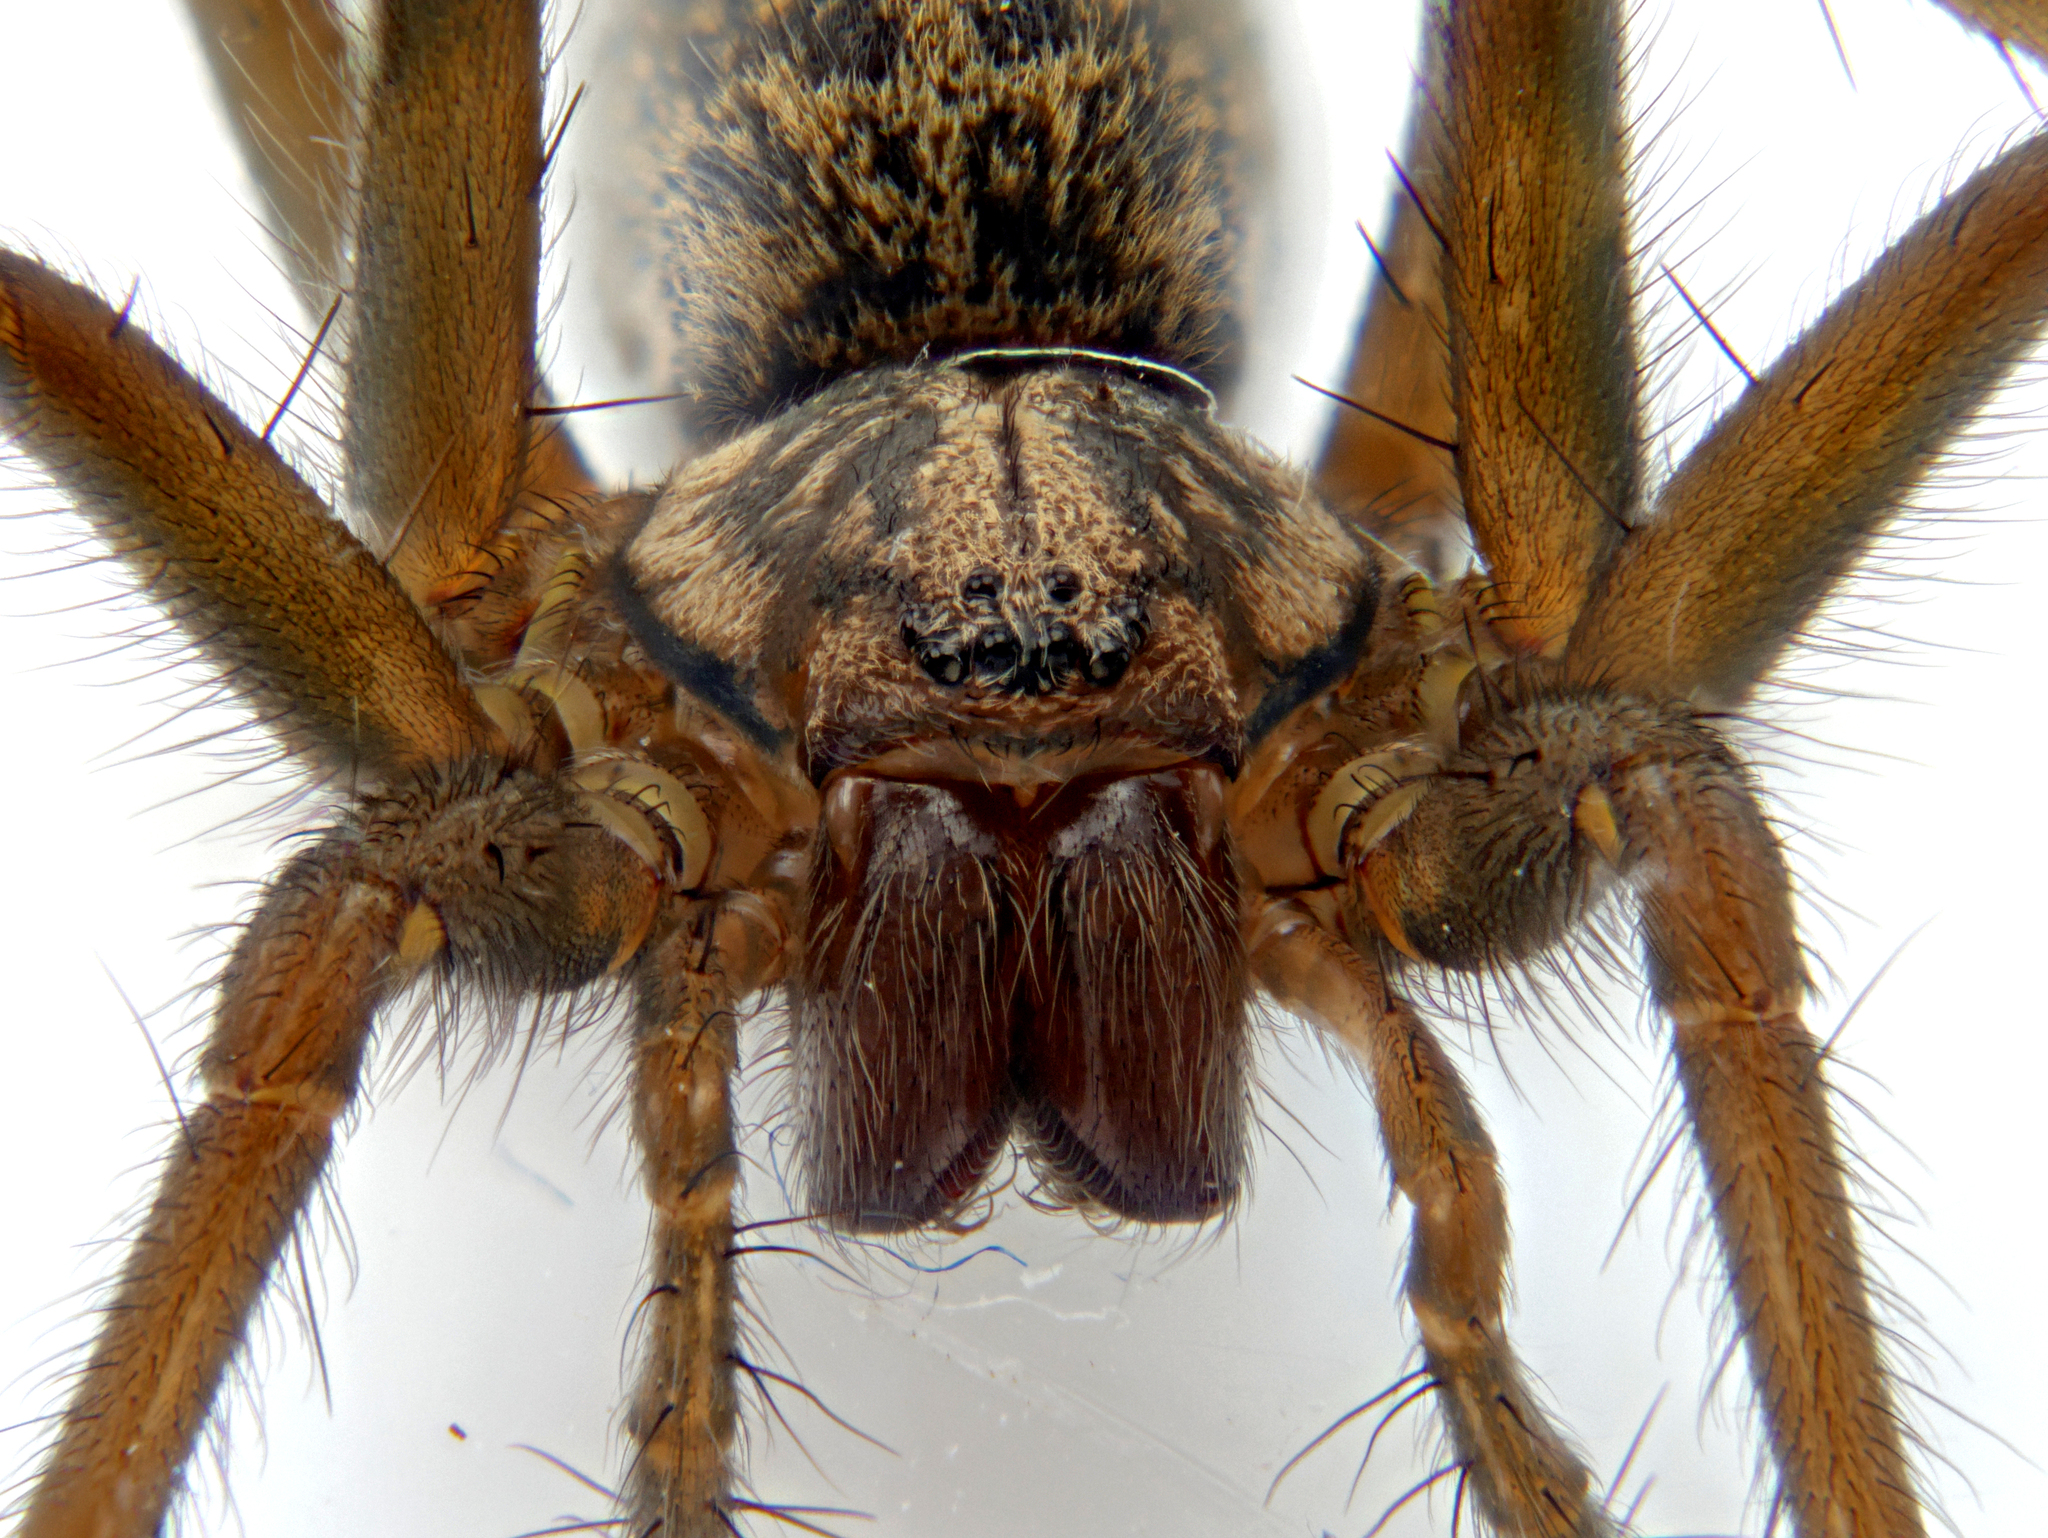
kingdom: Animalia
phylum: Arthropoda
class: Arachnida
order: Araneae
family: Agelenidae
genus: Eratigena
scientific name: Eratigena atrica
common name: Giant house spider
